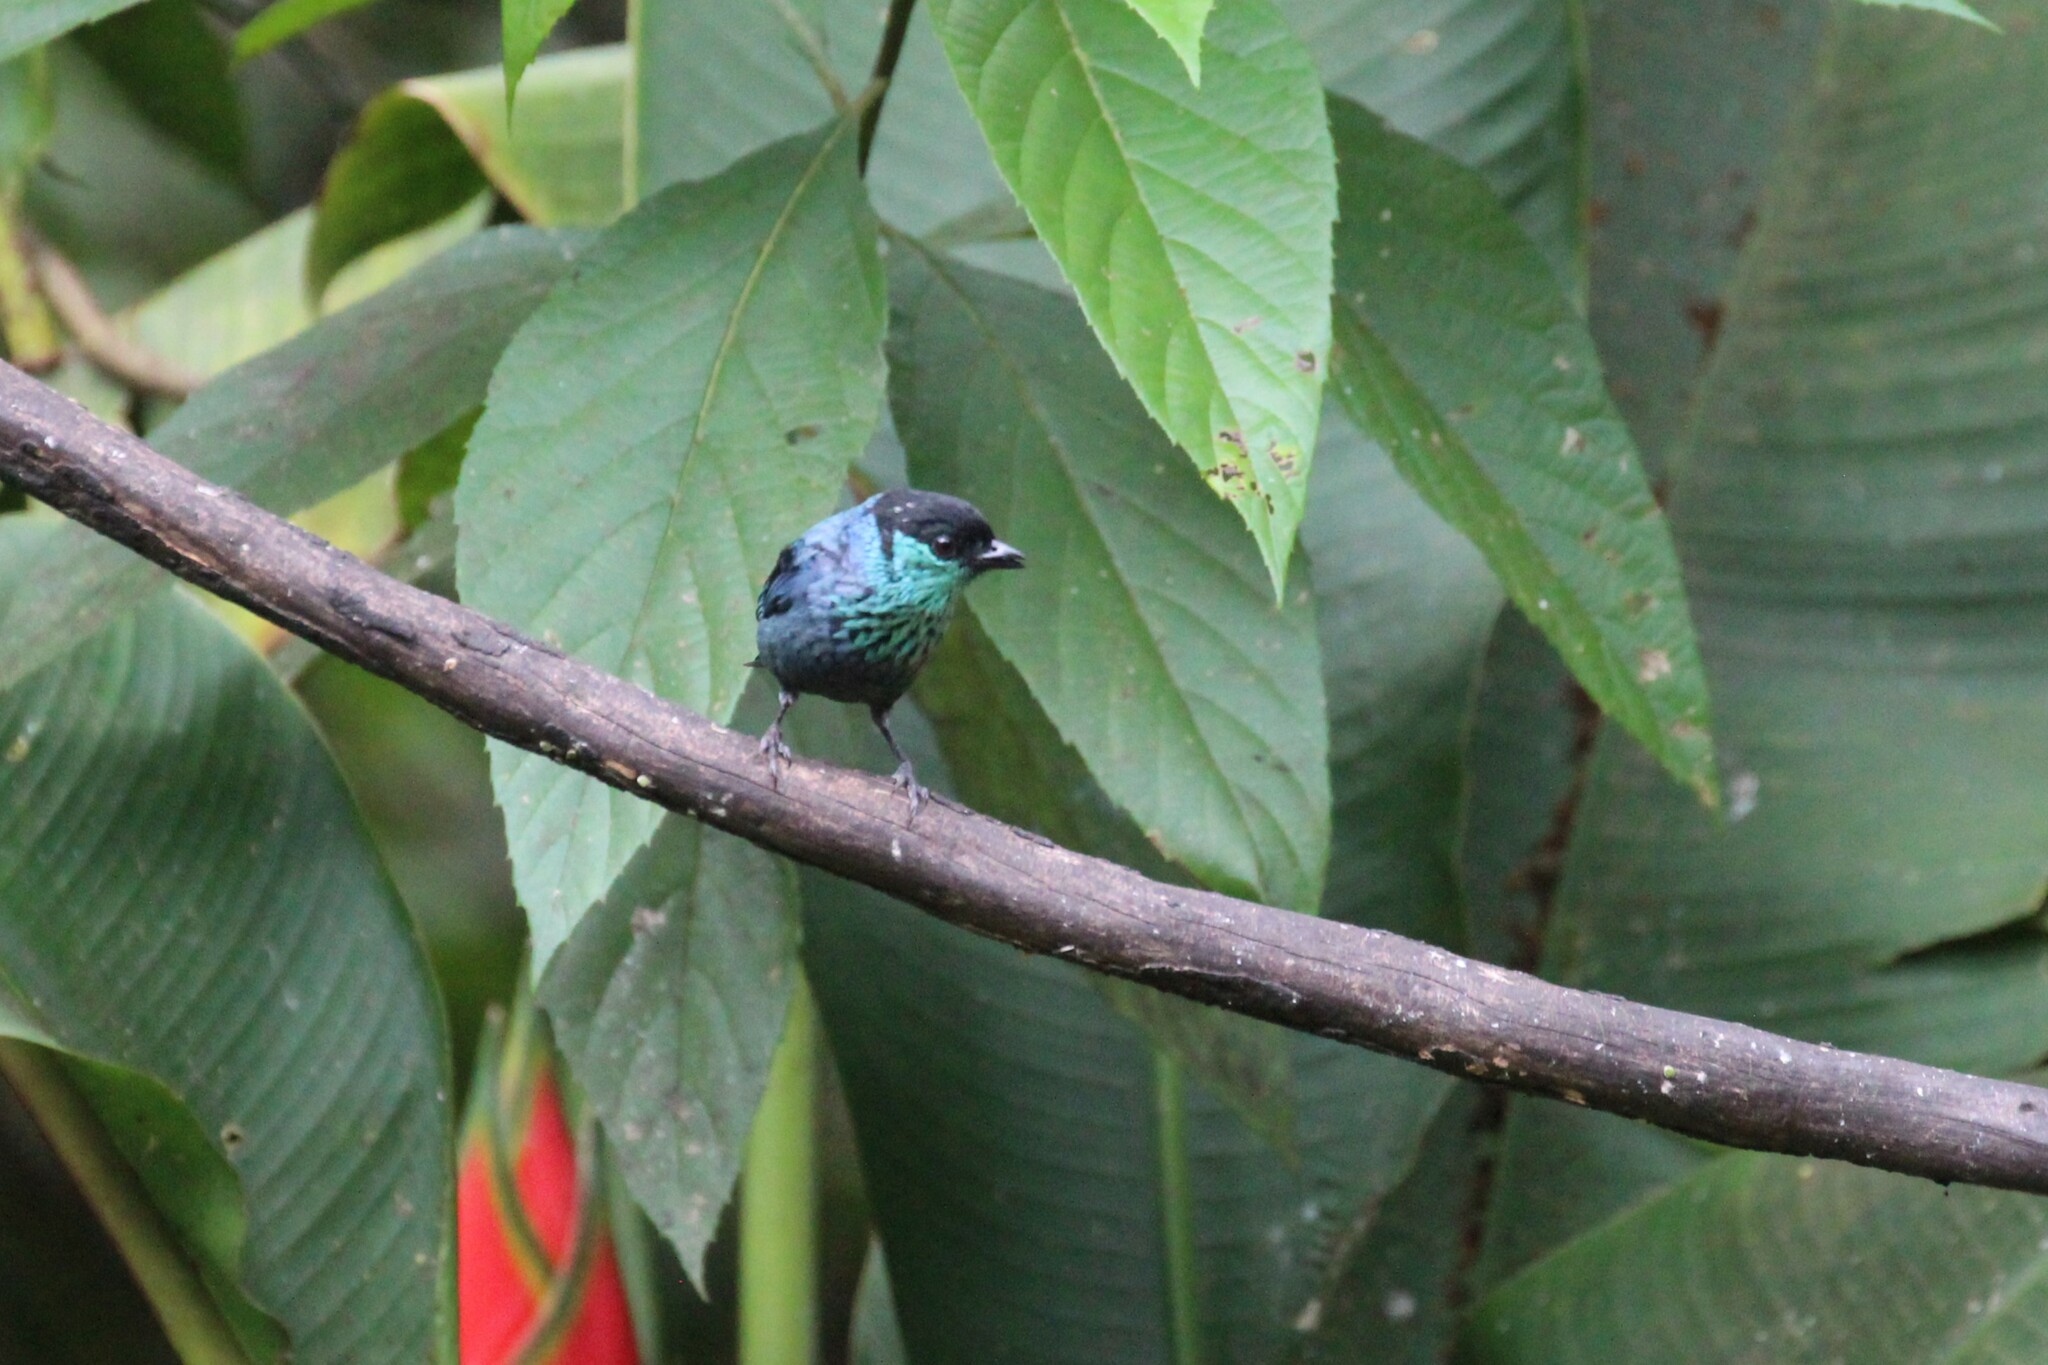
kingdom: Animalia
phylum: Chordata
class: Aves
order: Passeriformes
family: Thraupidae
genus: Stilpnia
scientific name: Stilpnia heinei
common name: Black-capped tanager
